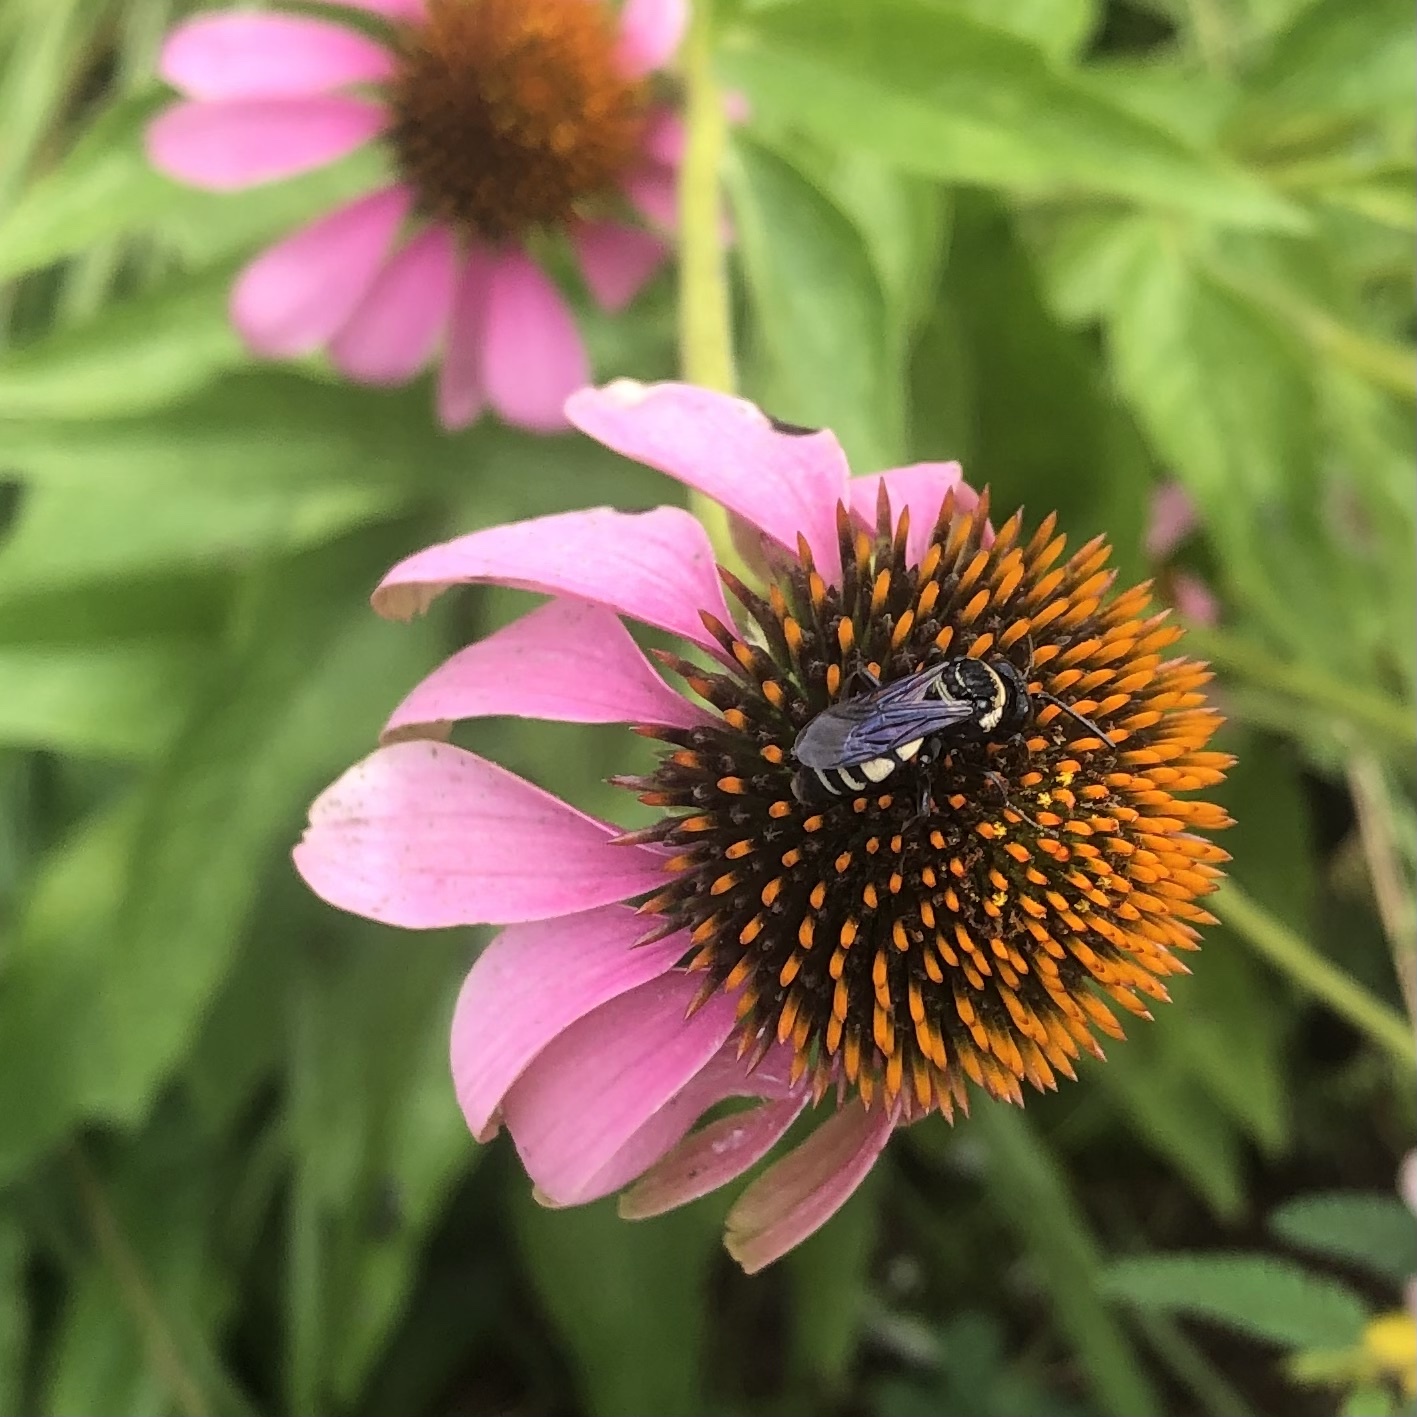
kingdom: Animalia
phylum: Arthropoda
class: Insecta
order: Hymenoptera
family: Apidae
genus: Triepeolus
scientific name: Triepeolus concavus
